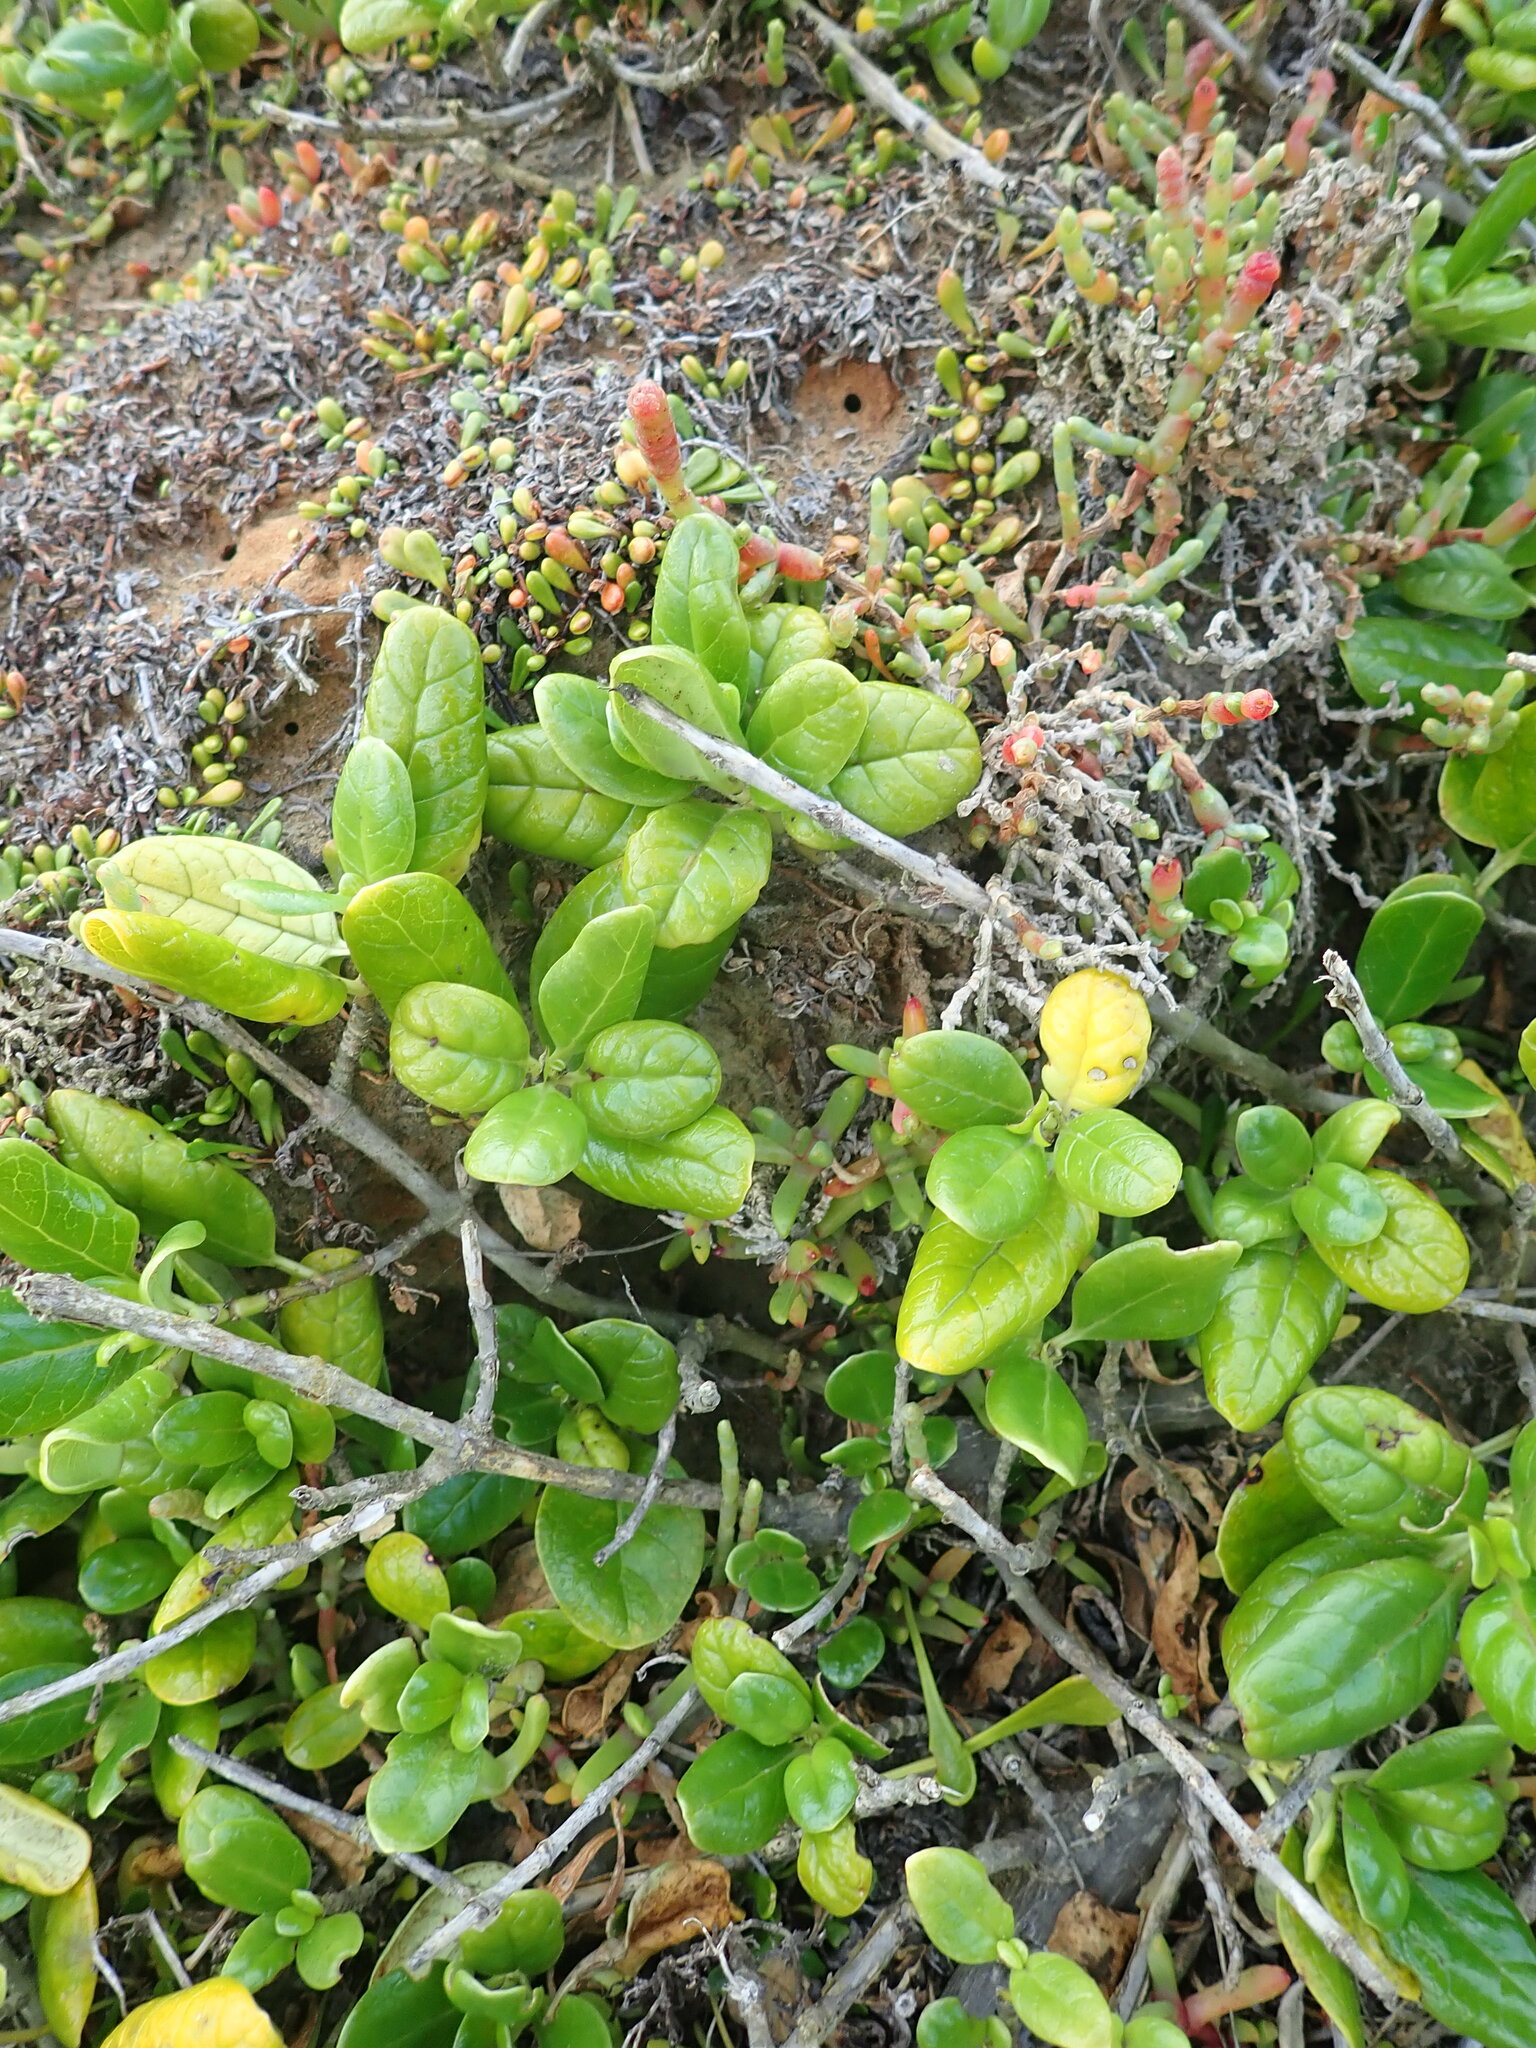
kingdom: Plantae
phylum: Tracheophyta
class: Magnoliopsida
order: Gentianales
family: Rubiaceae
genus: Coprosma
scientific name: Coprosma repens
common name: Tree bedstraw
